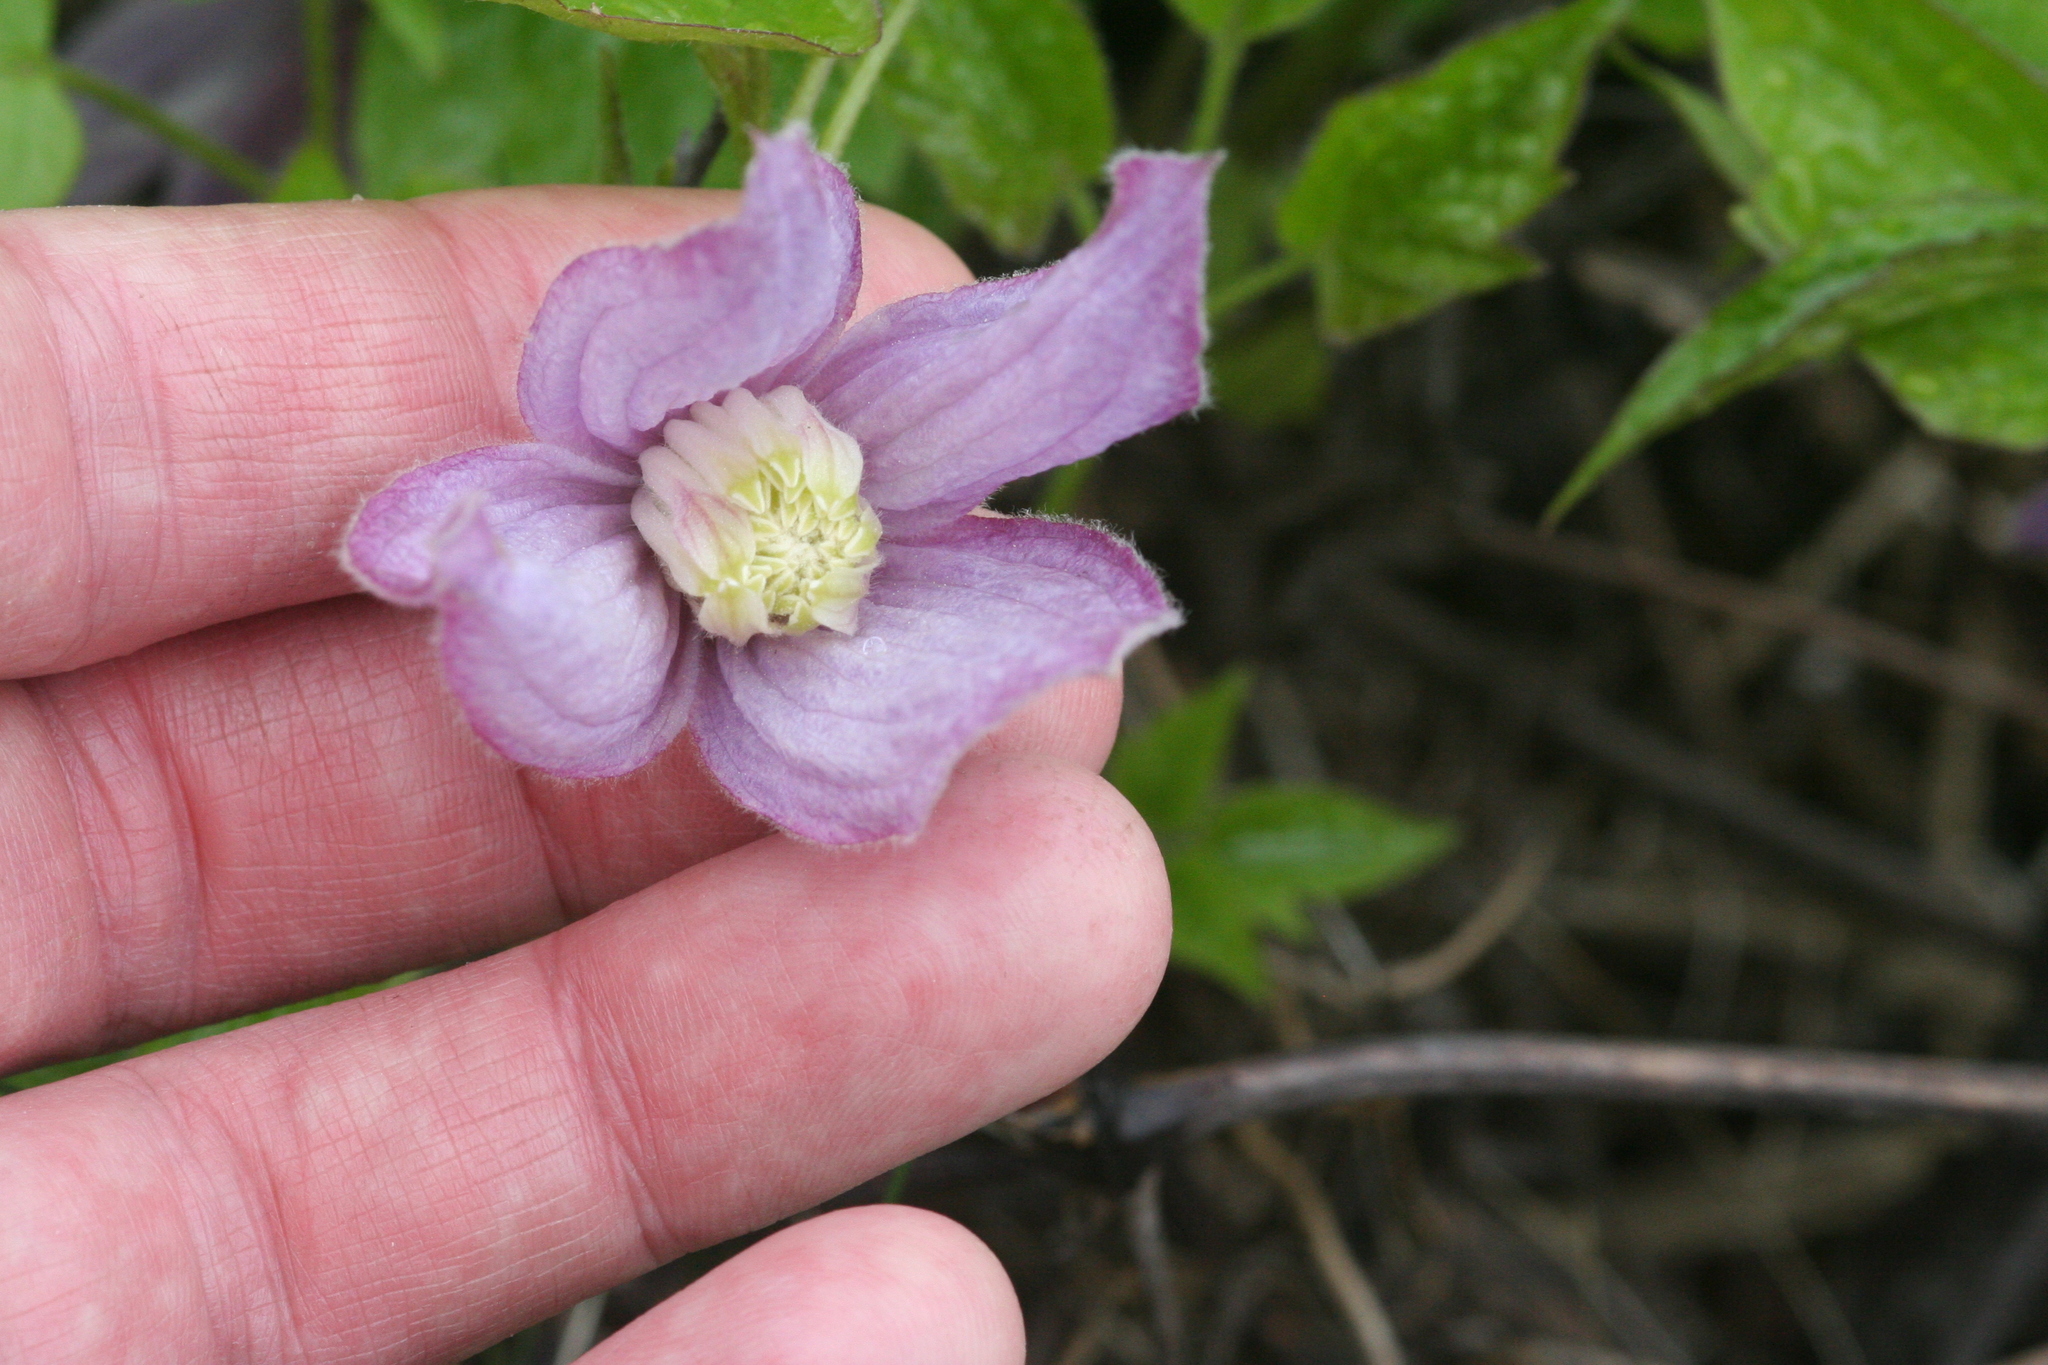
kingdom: Plantae
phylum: Tracheophyta
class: Magnoliopsida
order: Ranunculales
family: Ranunculaceae
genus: Clematis
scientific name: Clematis occidentalis
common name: Purple clematis
